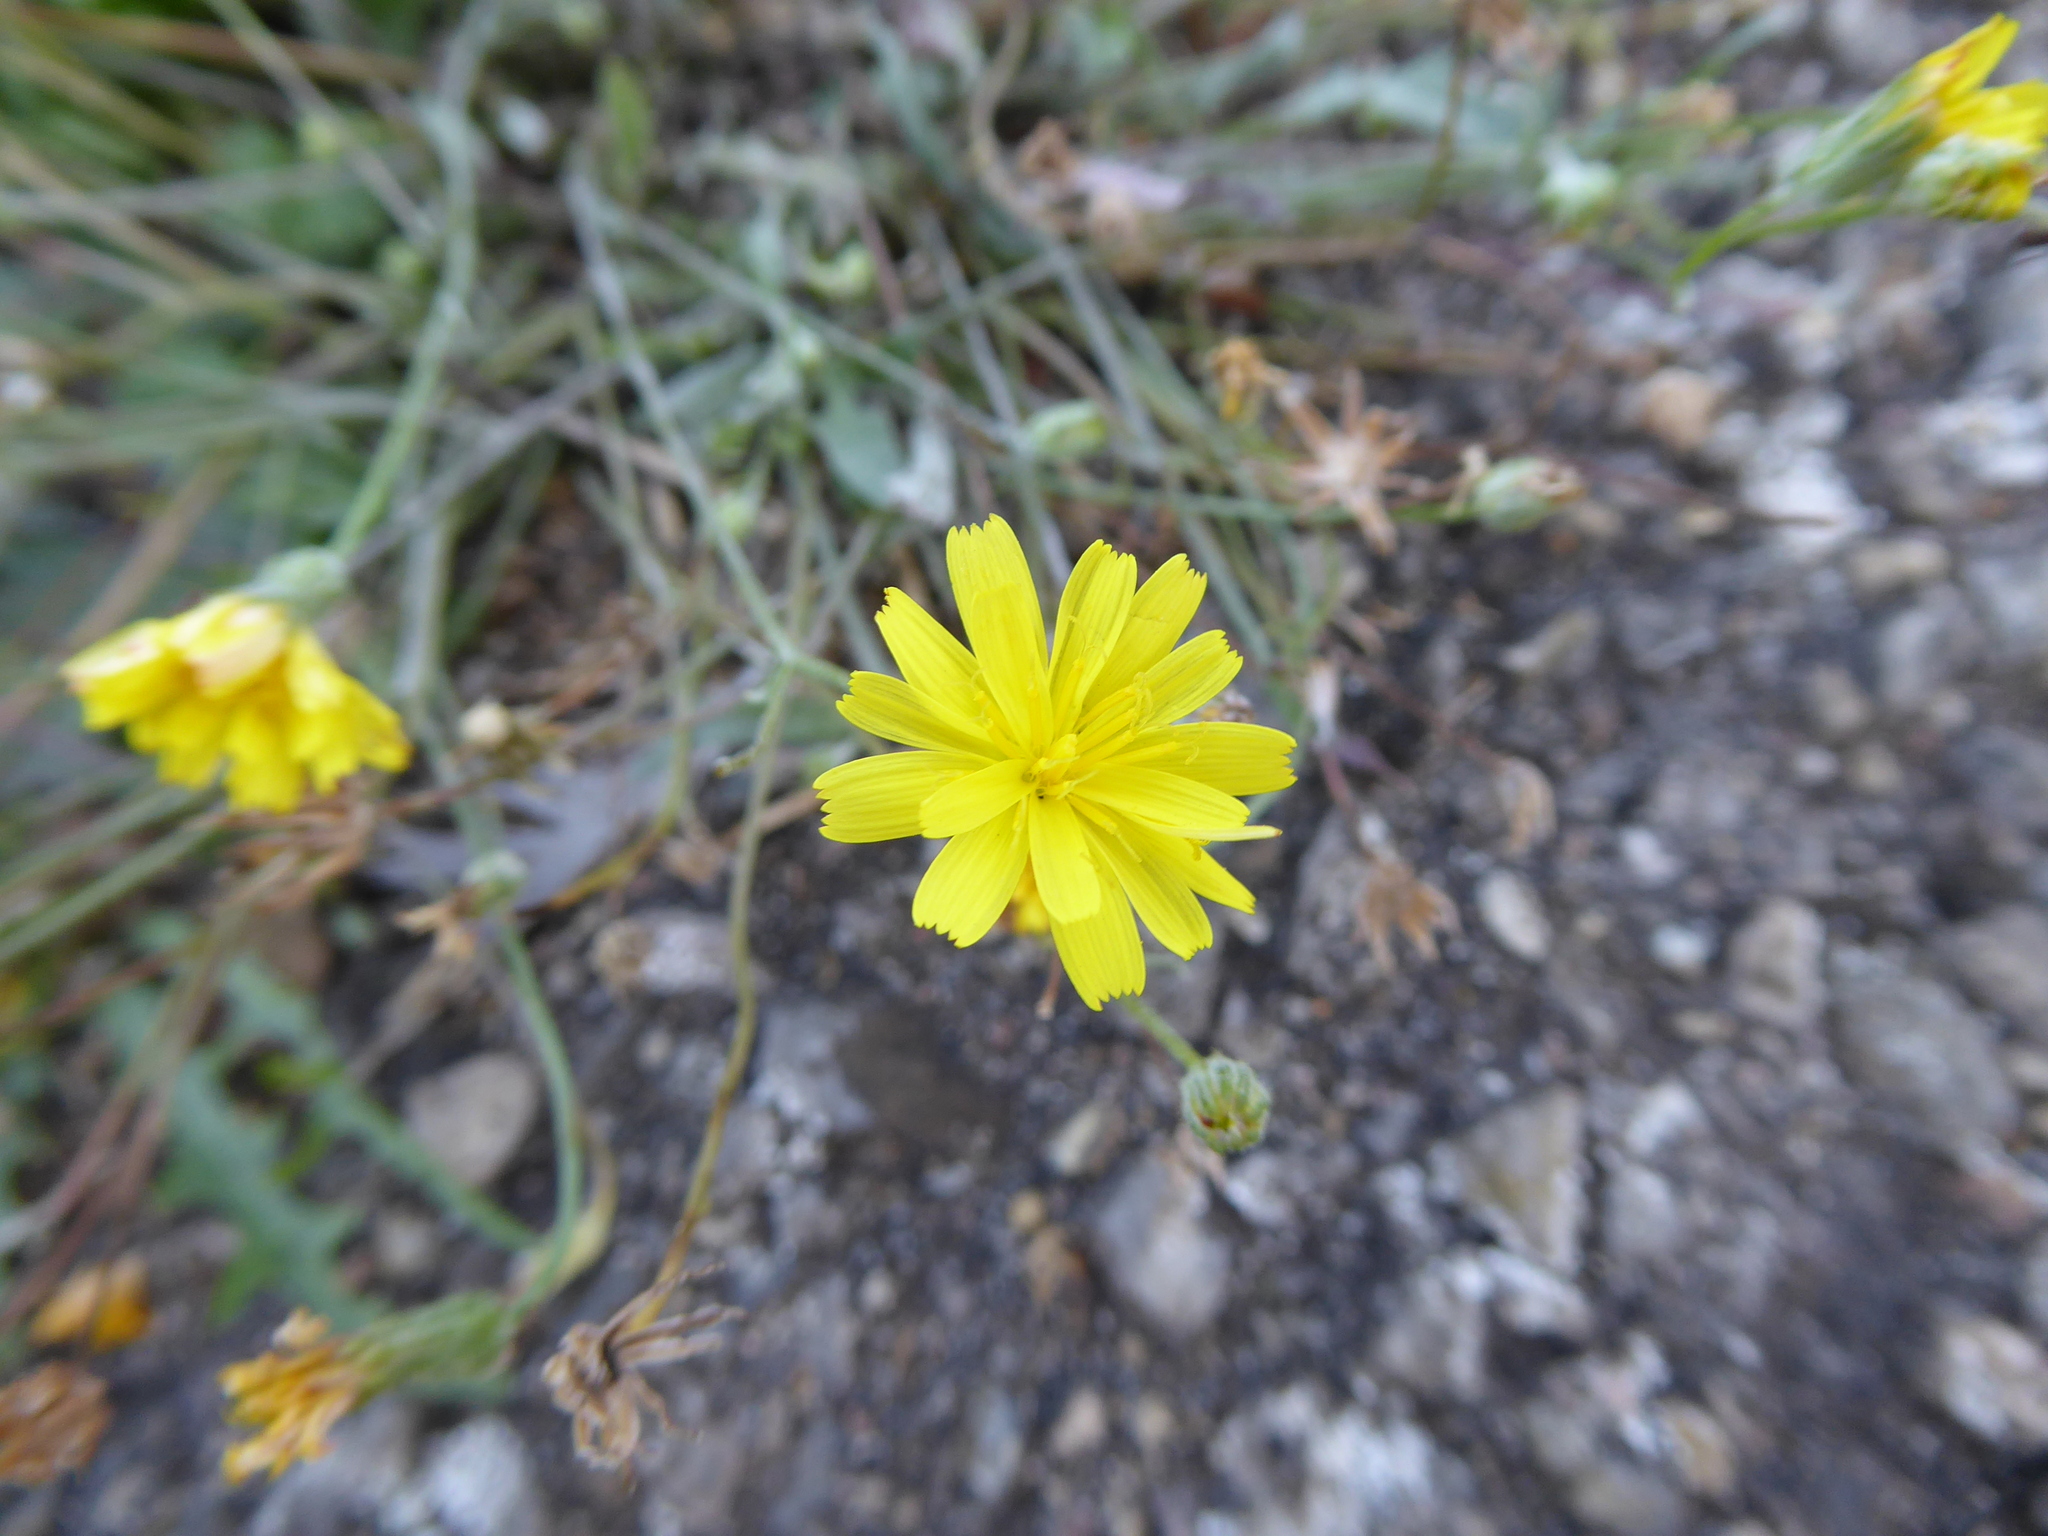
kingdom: Plantae
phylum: Tracheophyta
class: Magnoliopsida
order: Asterales
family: Asteraceae
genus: Crepis
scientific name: Crepis capillaris
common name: Smooth hawksbeard
